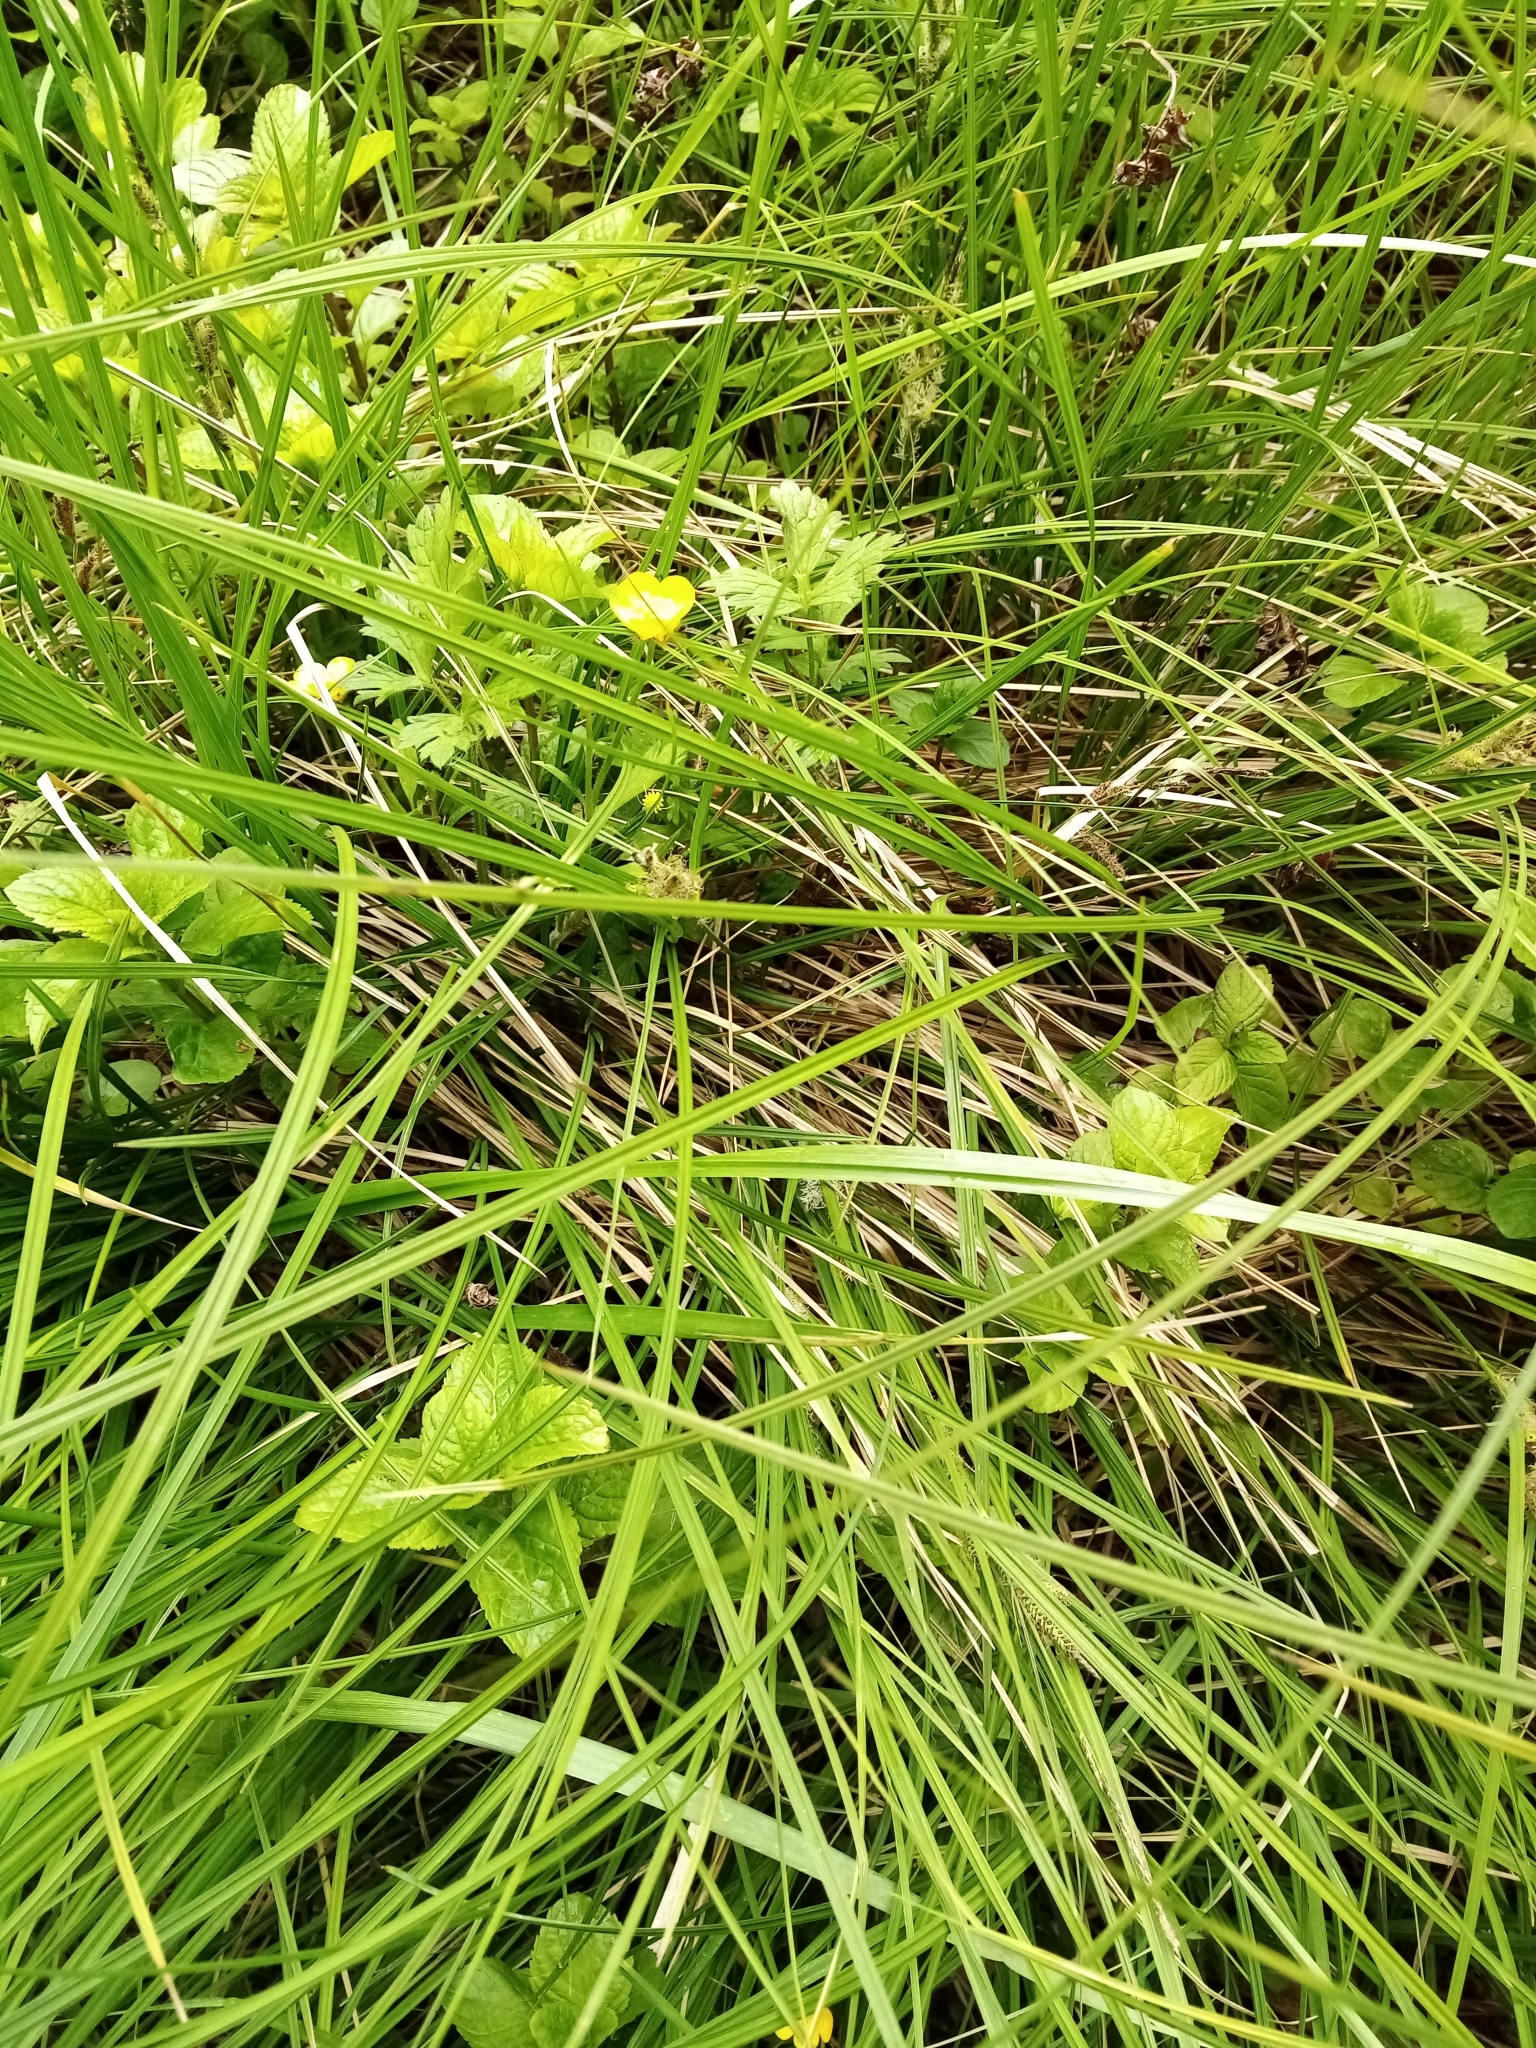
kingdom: Plantae
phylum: Tracheophyta
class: Liliopsida
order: Poales
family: Cyperaceae
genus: Carex
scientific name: Carex sinclairii
